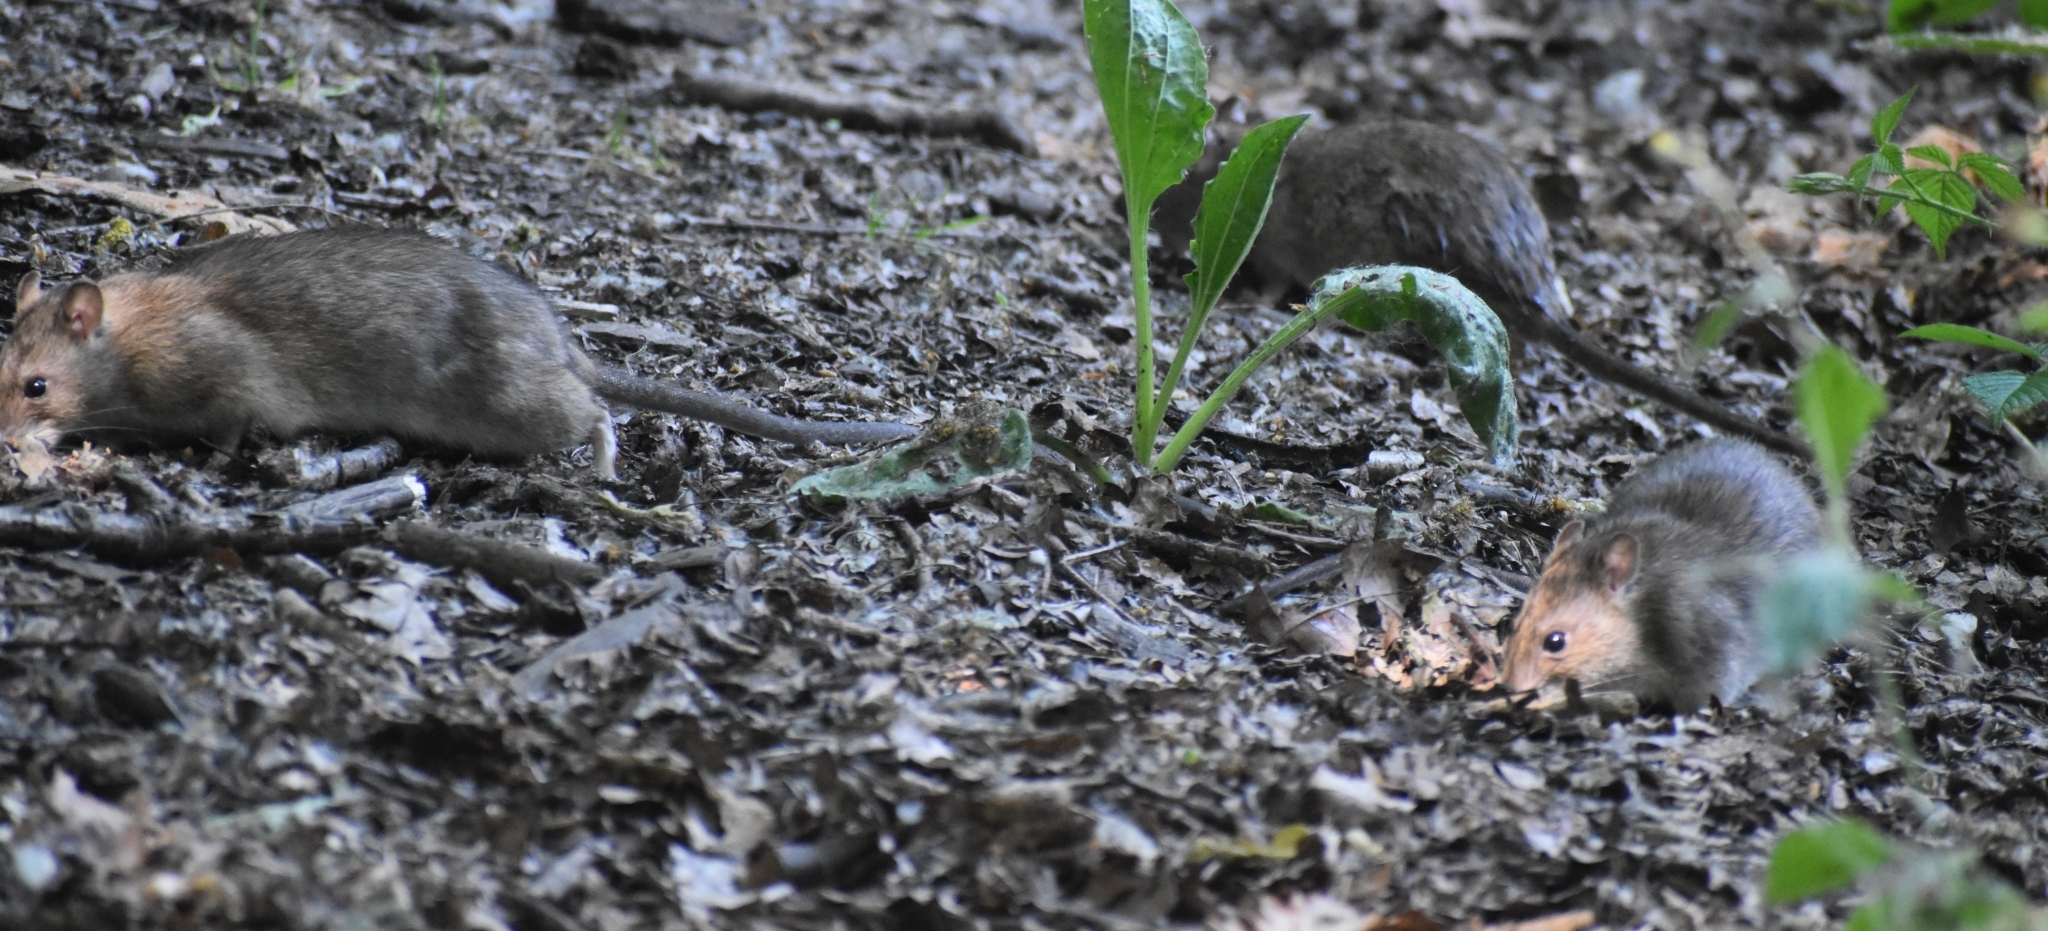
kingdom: Animalia
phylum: Chordata
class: Mammalia
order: Rodentia
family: Muridae
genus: Rattus
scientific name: Rattus norvegicus
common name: Brown rat
